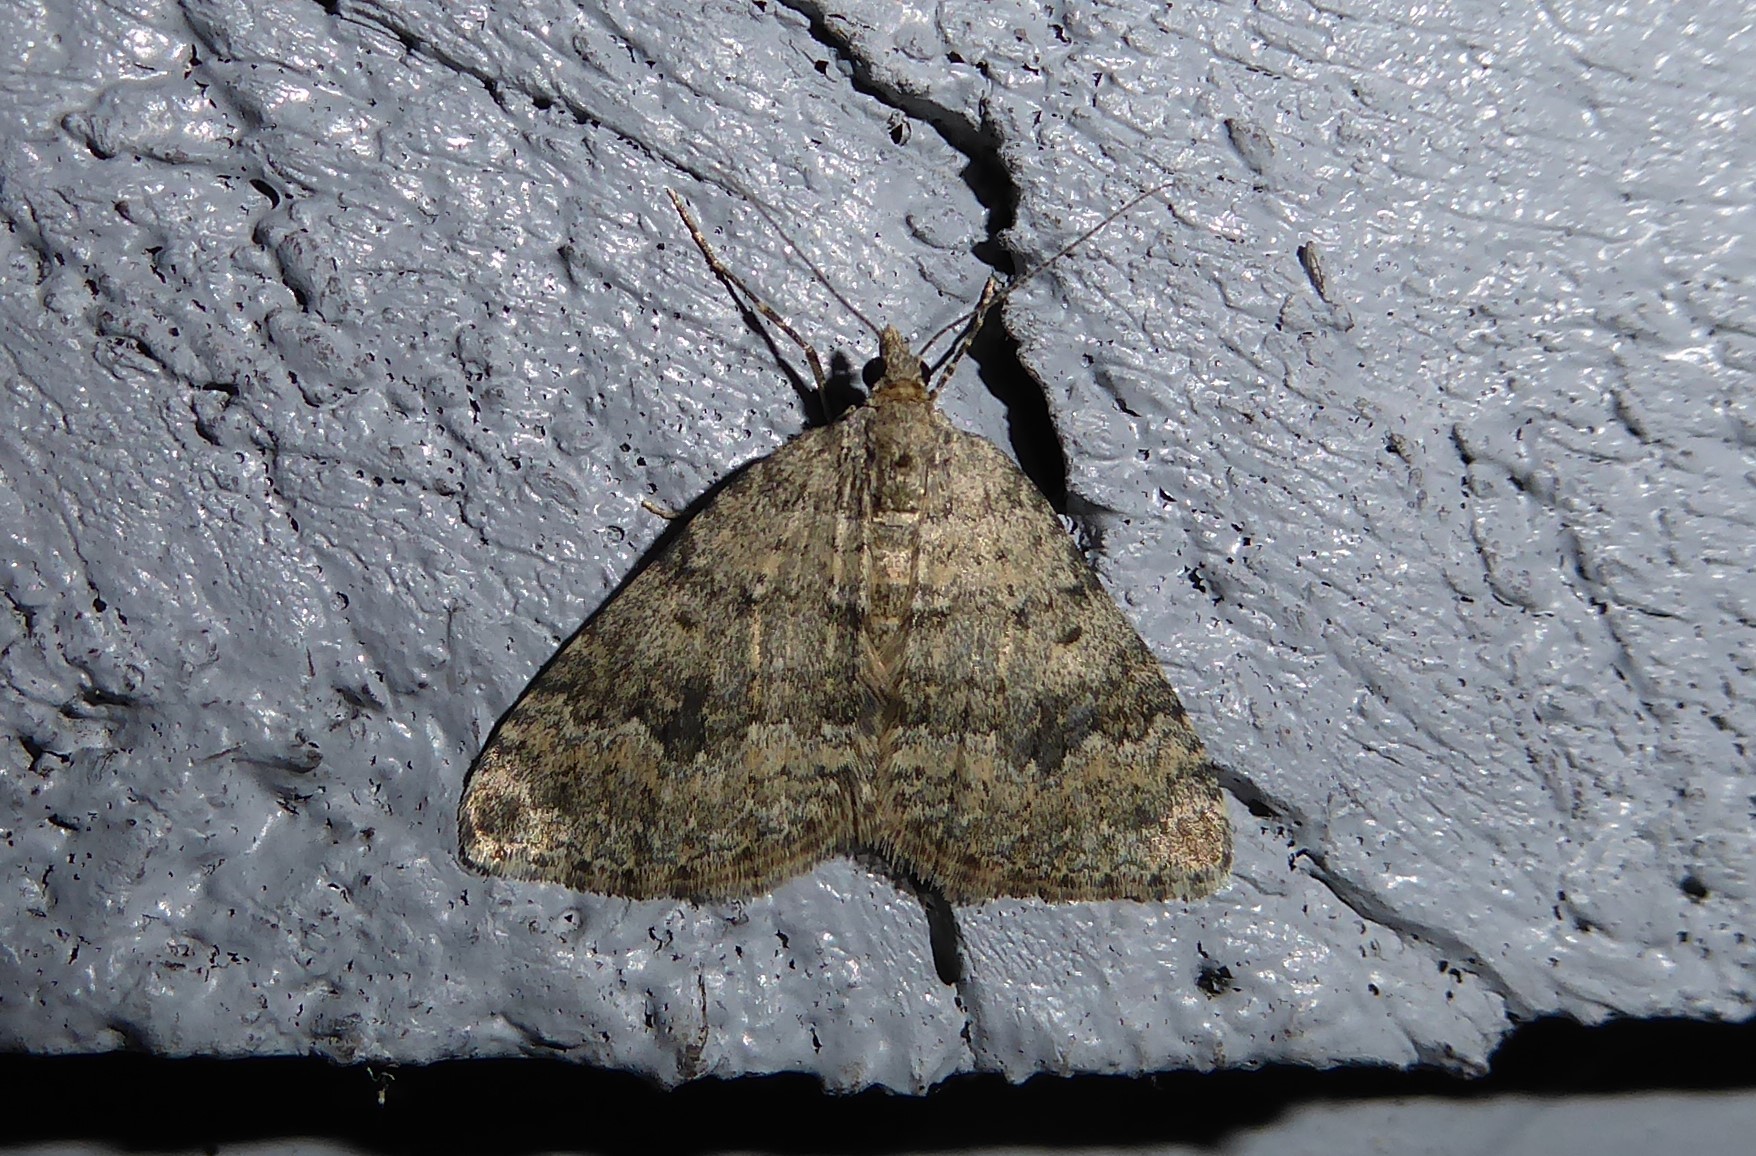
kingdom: Animalia
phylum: Arthropoda
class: Insecta
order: Lepidoptera
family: Geometridae
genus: Helastia
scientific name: Helastia corcularia
